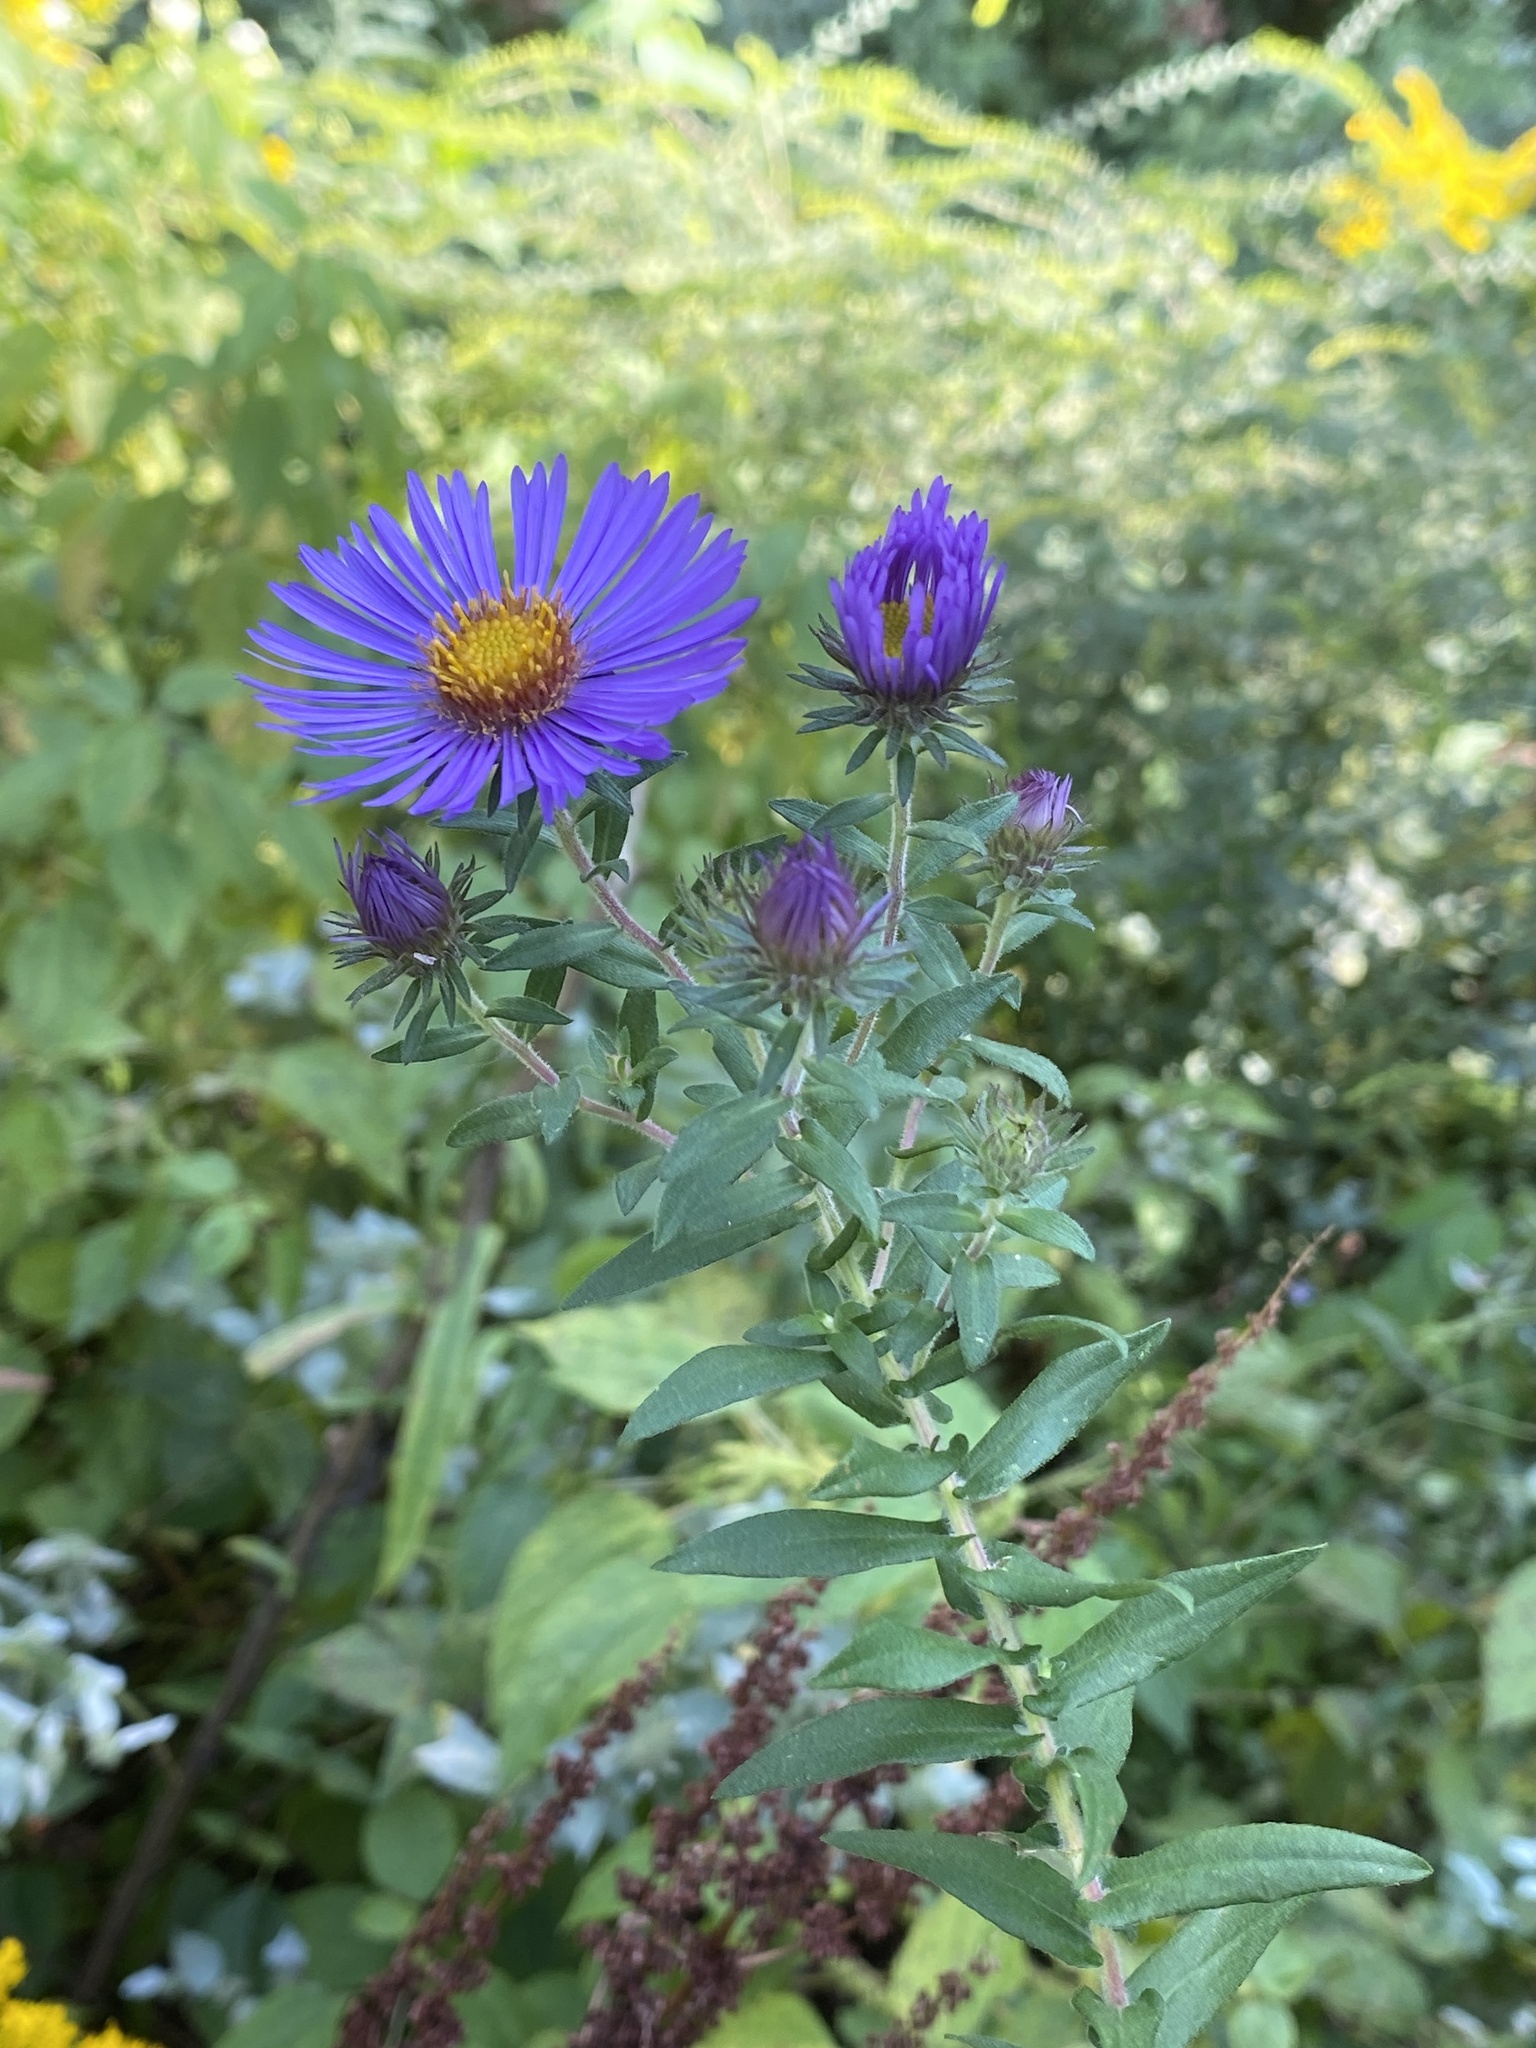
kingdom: Plantae
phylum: Tracheophyta
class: Magnoliopsida
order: Asterales
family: Asteraceae
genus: Symphyotrichum
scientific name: Symphyotrichum novae-angliae
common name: Michaelmas daisy
